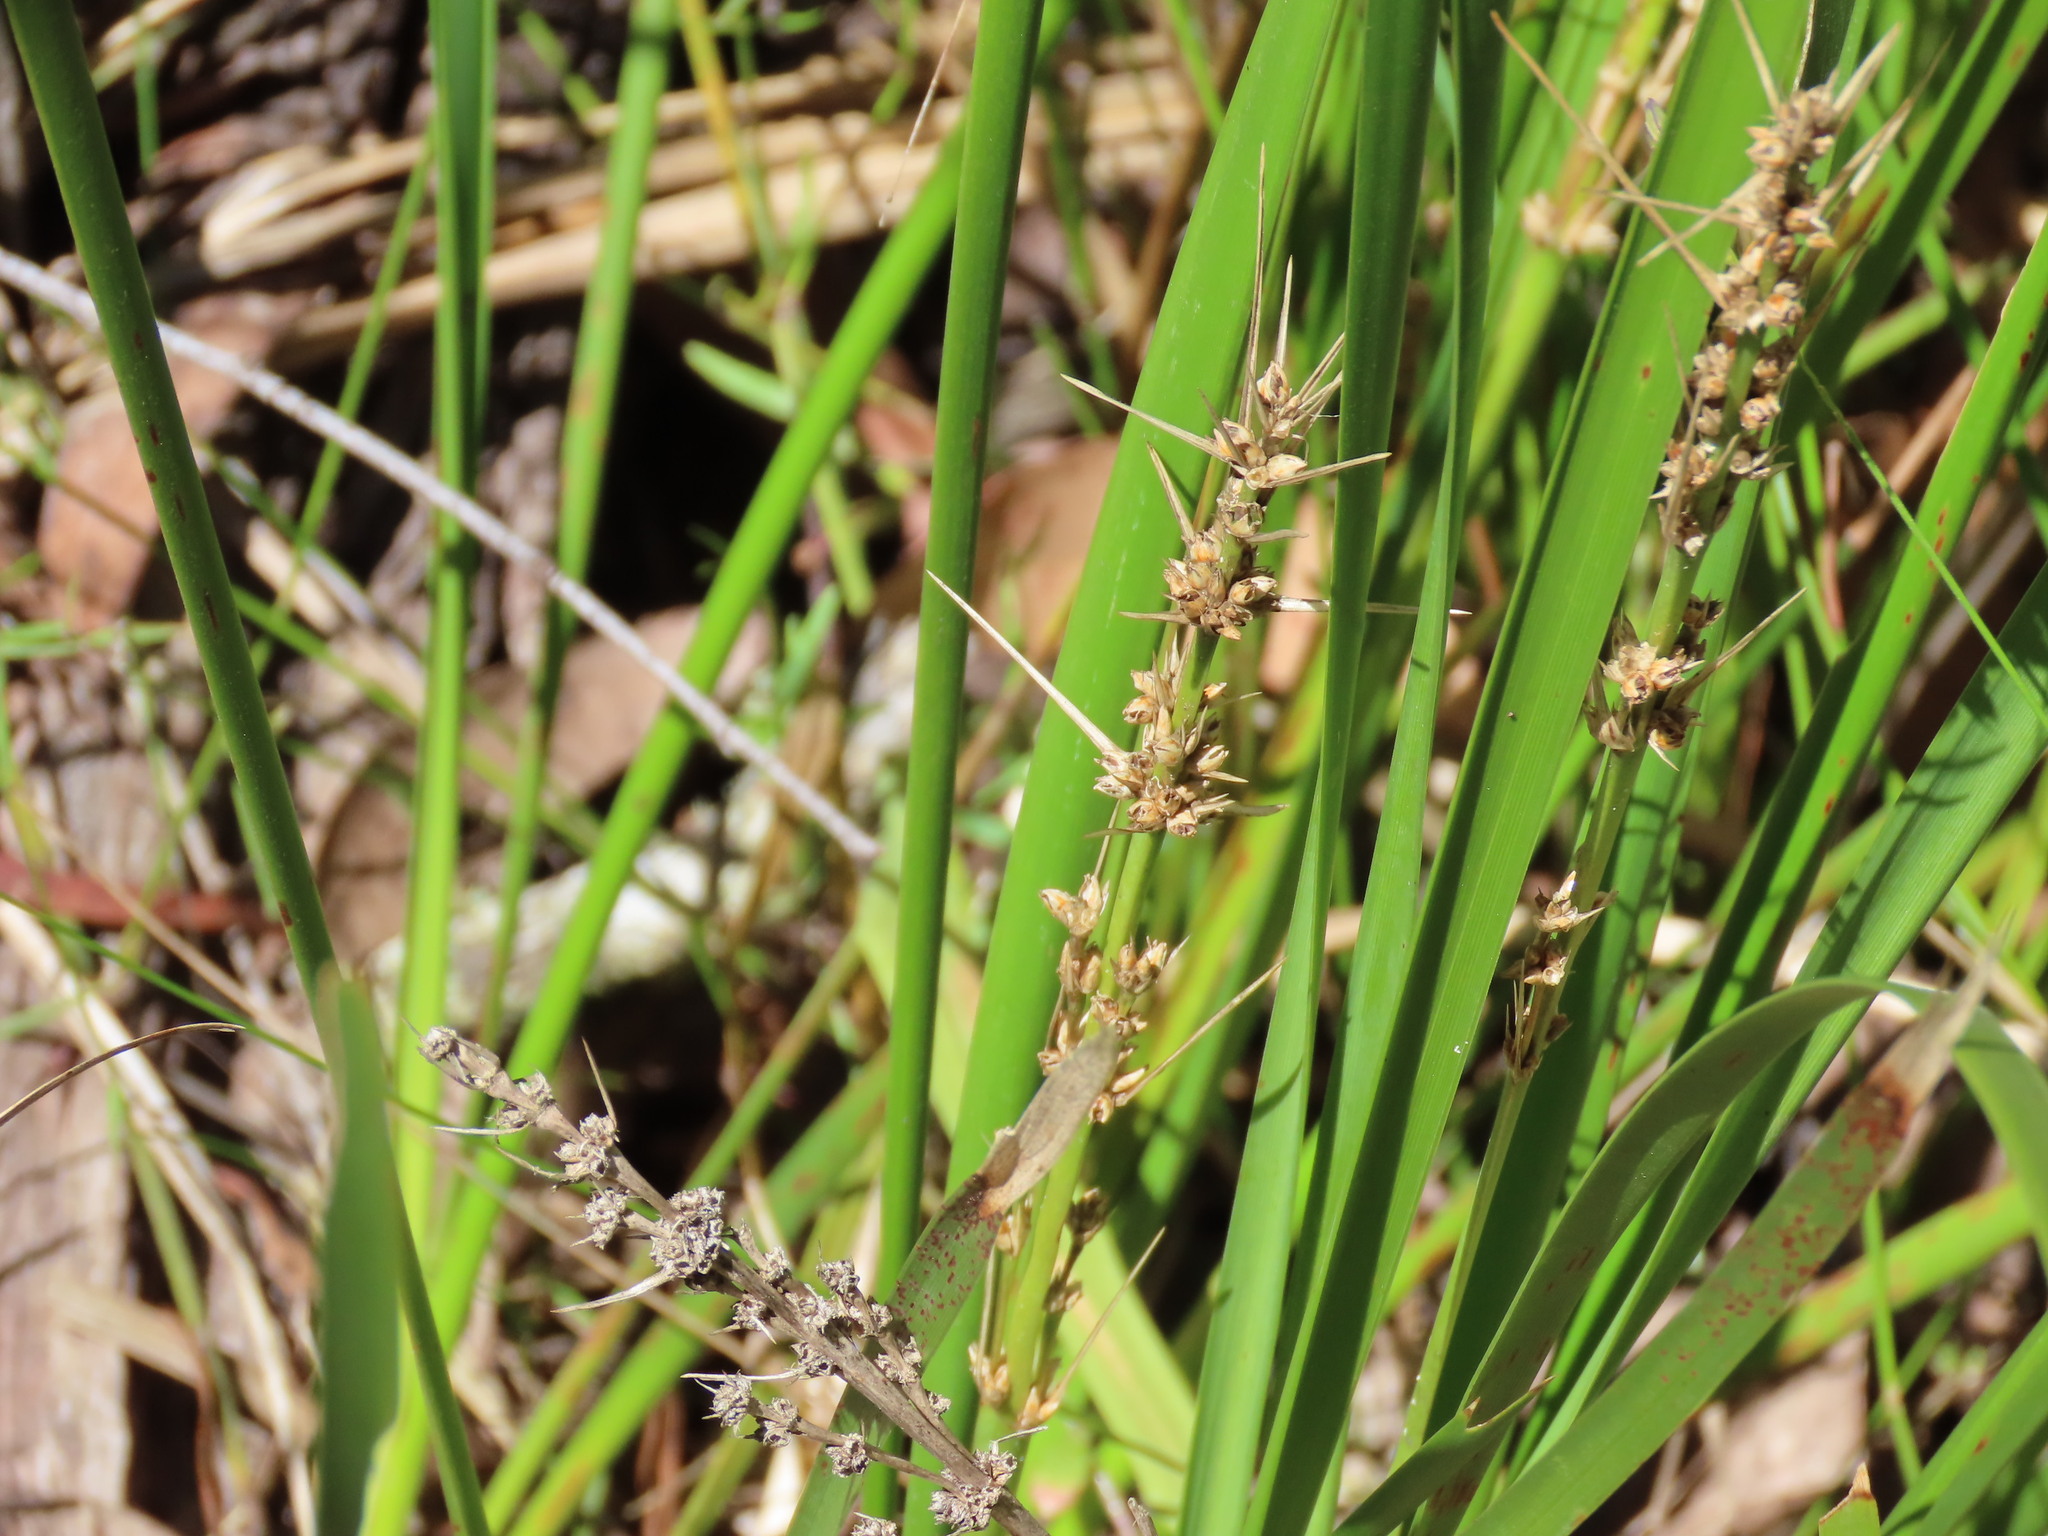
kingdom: Plantae
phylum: Tracheophyta
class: Liliopsida
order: Asparagales
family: Asparagaceae
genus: Lomandra
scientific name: Lomandra longifolia
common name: Longleaf mat-rush
